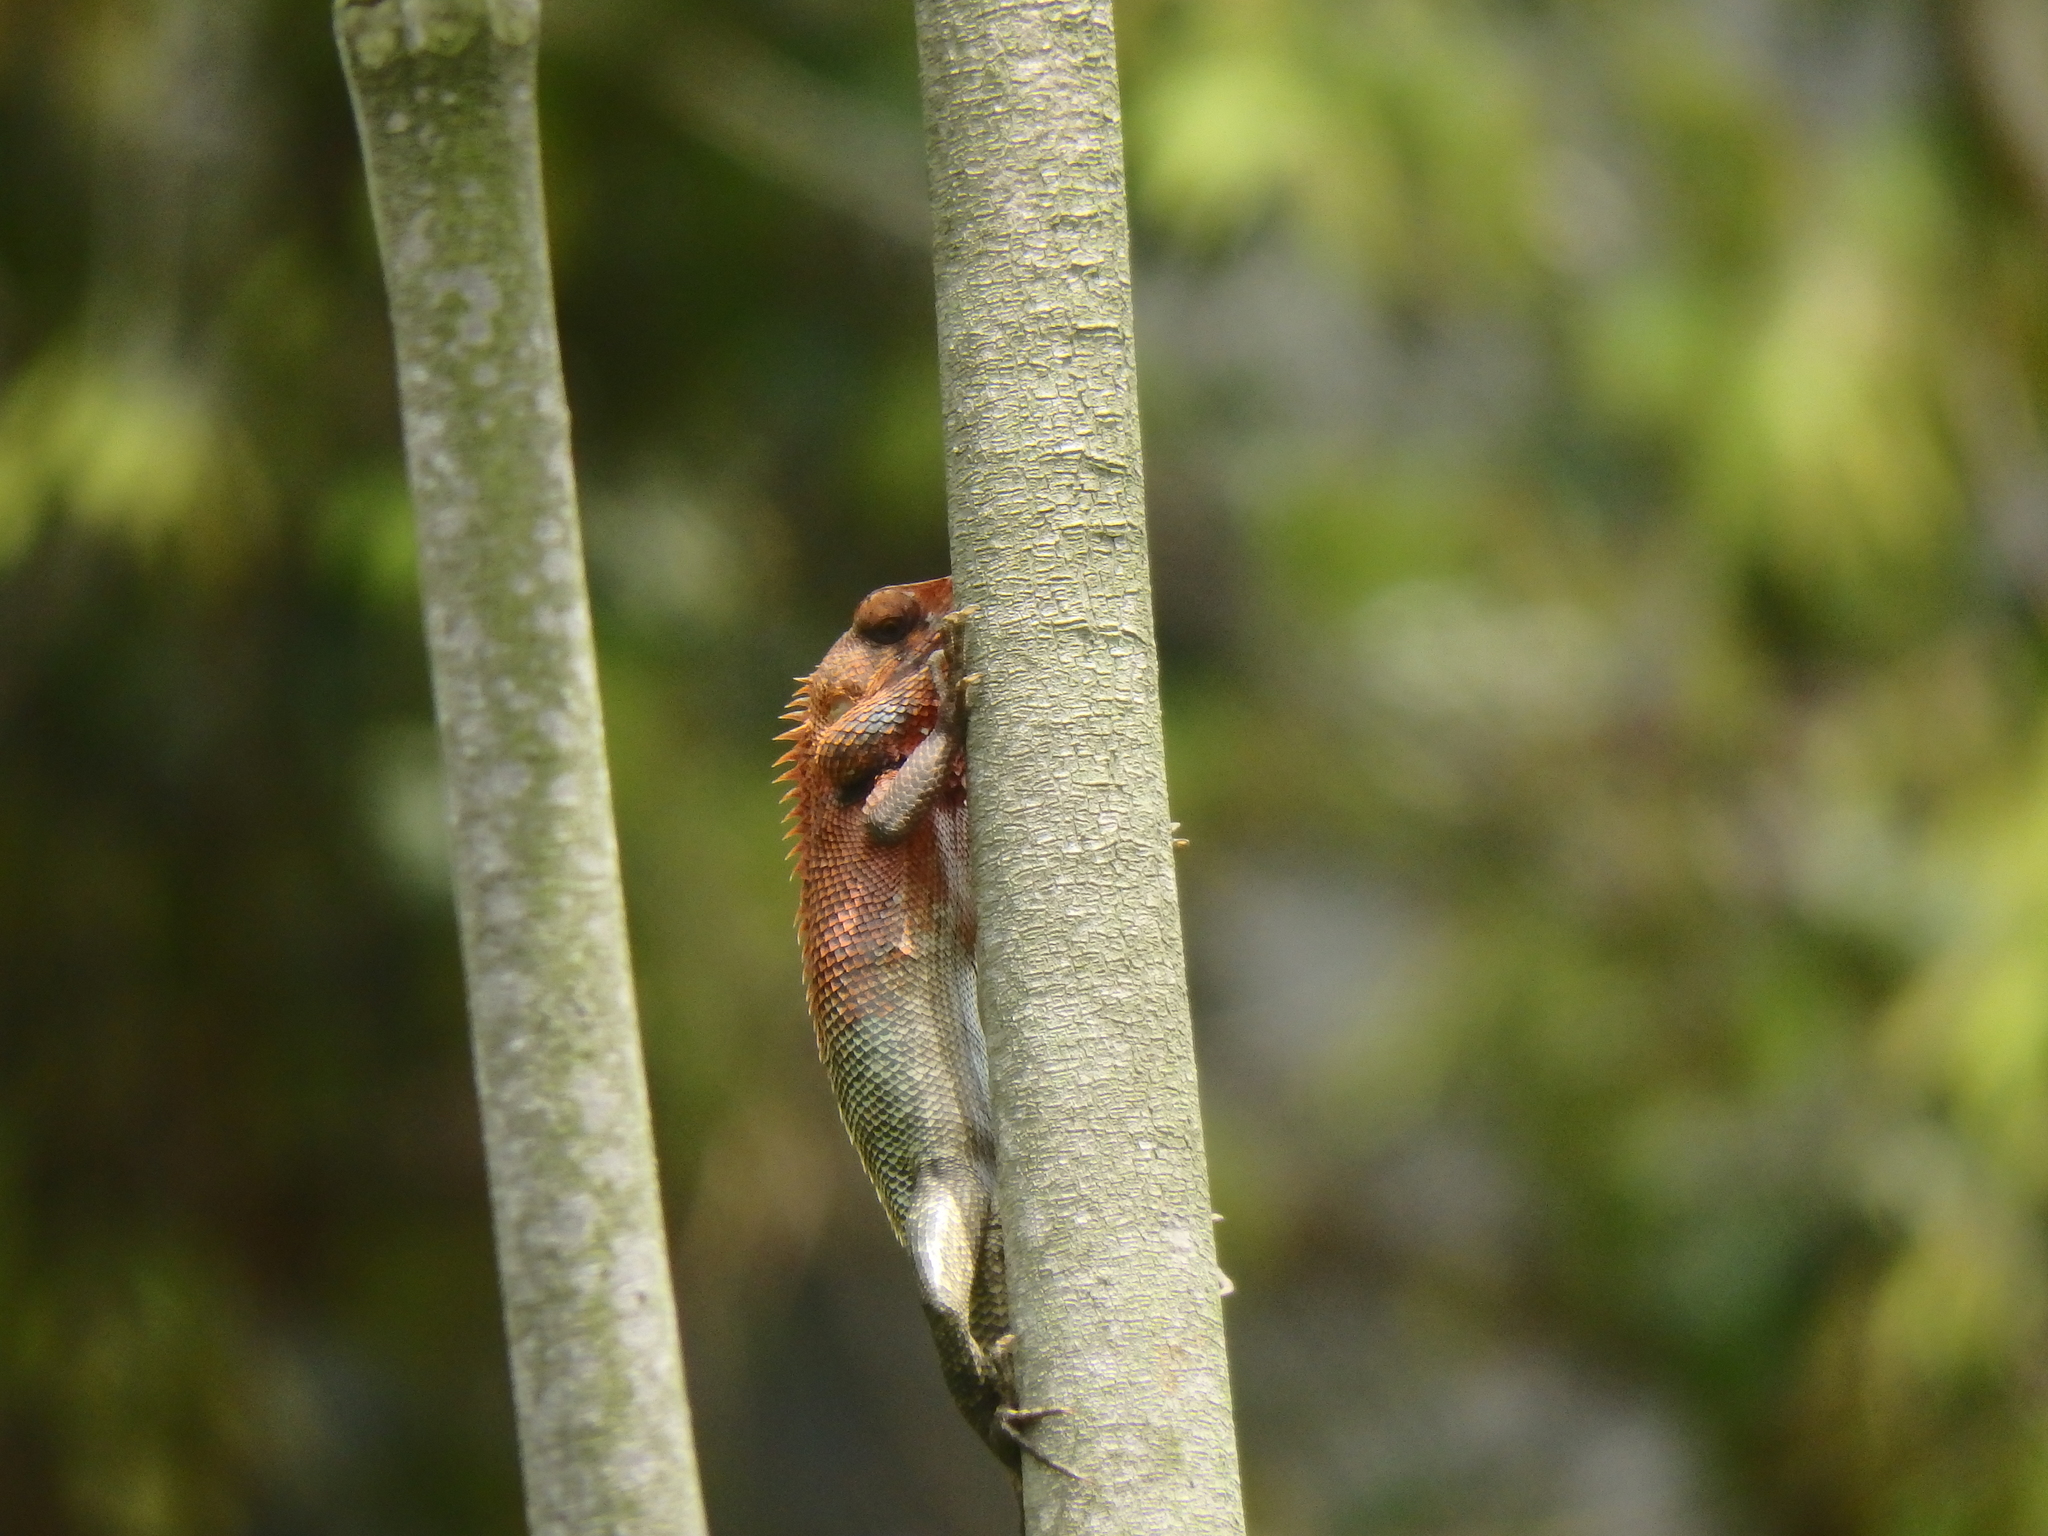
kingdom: Animalia
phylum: Chordata
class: Squamata
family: Agamidae
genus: Calotes
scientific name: Calotes versicolor
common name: Oriental garden lizard
